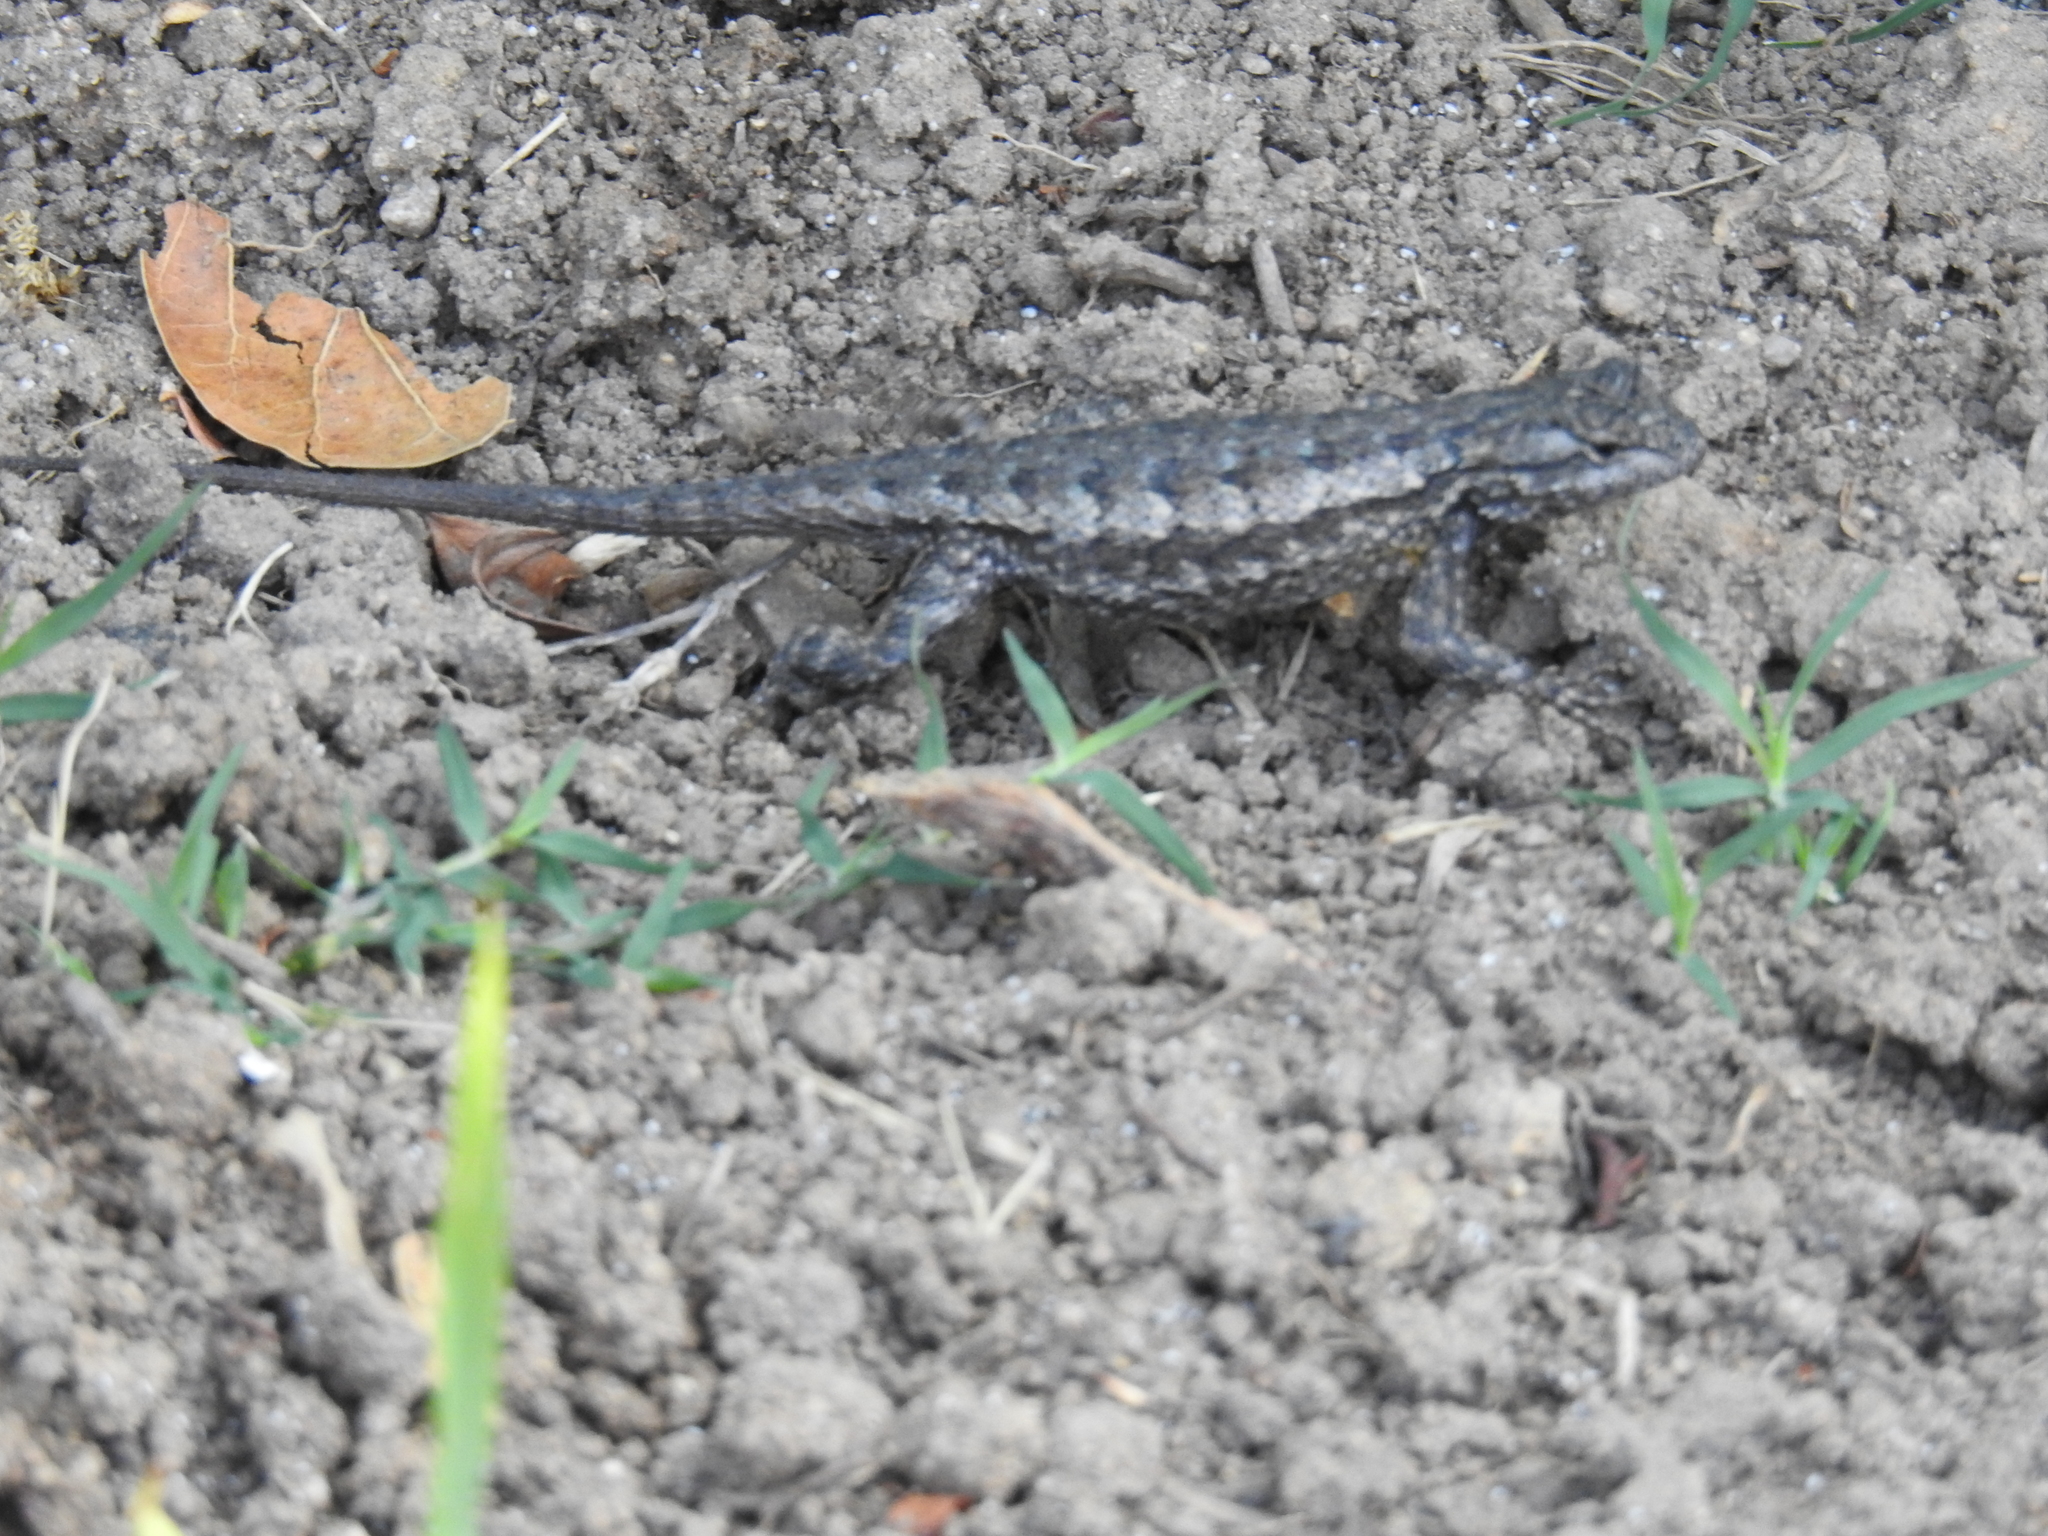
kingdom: Animalia
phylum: Chordata
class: Squamata
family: Phrynosomatidae
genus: Sceloporus
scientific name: Sceloporus occidentalis
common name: Western fence lizard
